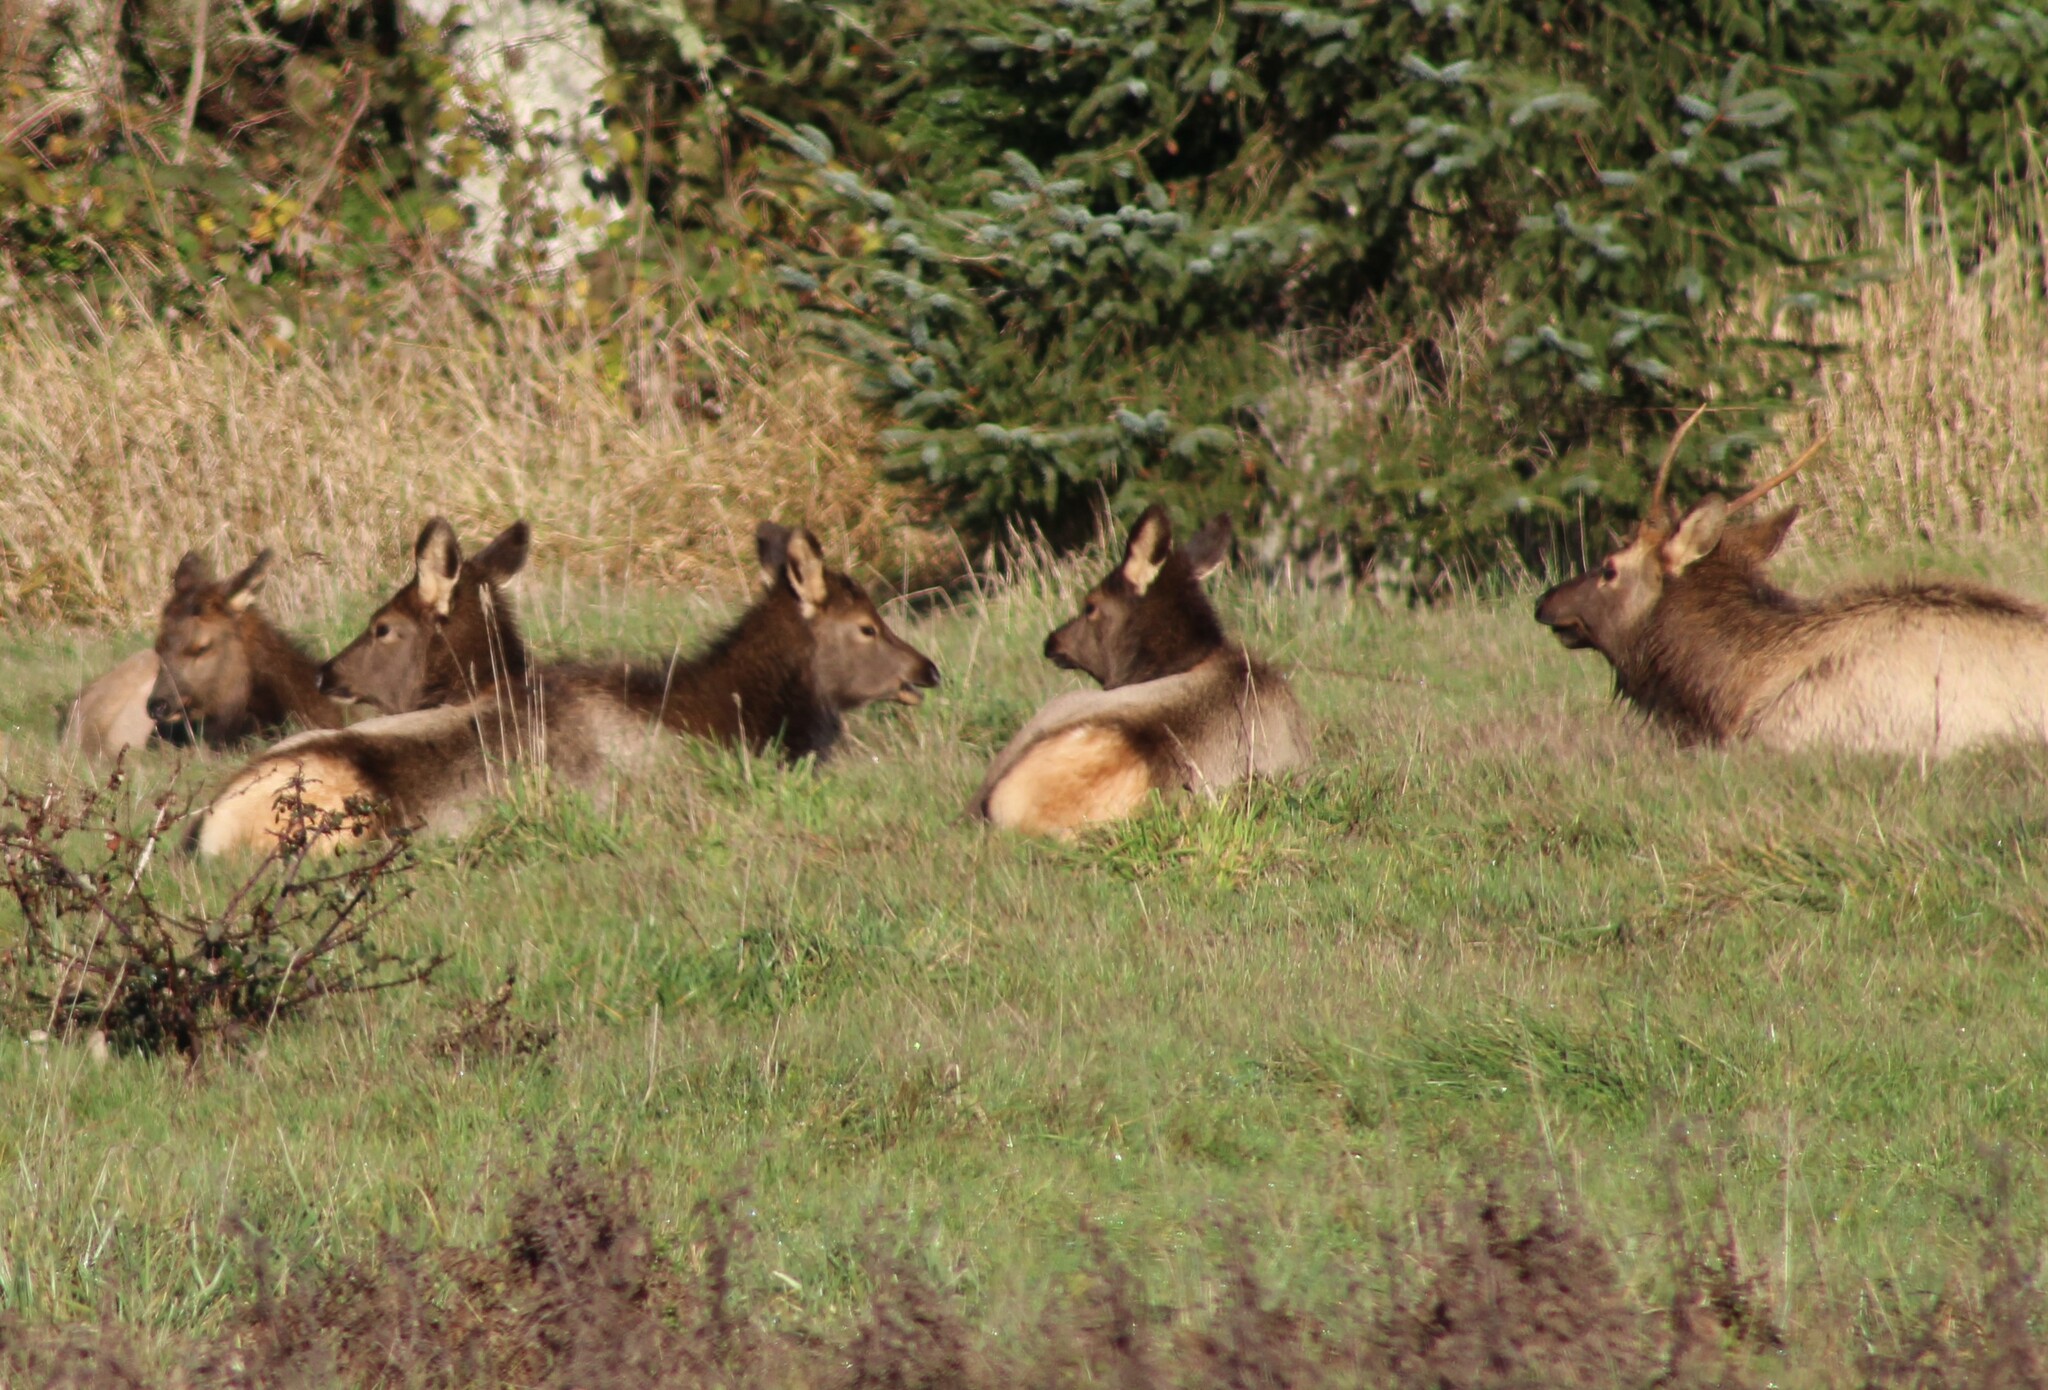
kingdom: Animalia
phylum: Chordata
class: Mammalia
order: Artiodactyla
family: Cervidae
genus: Cervus
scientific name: Cervus elaphus
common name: Red deer
